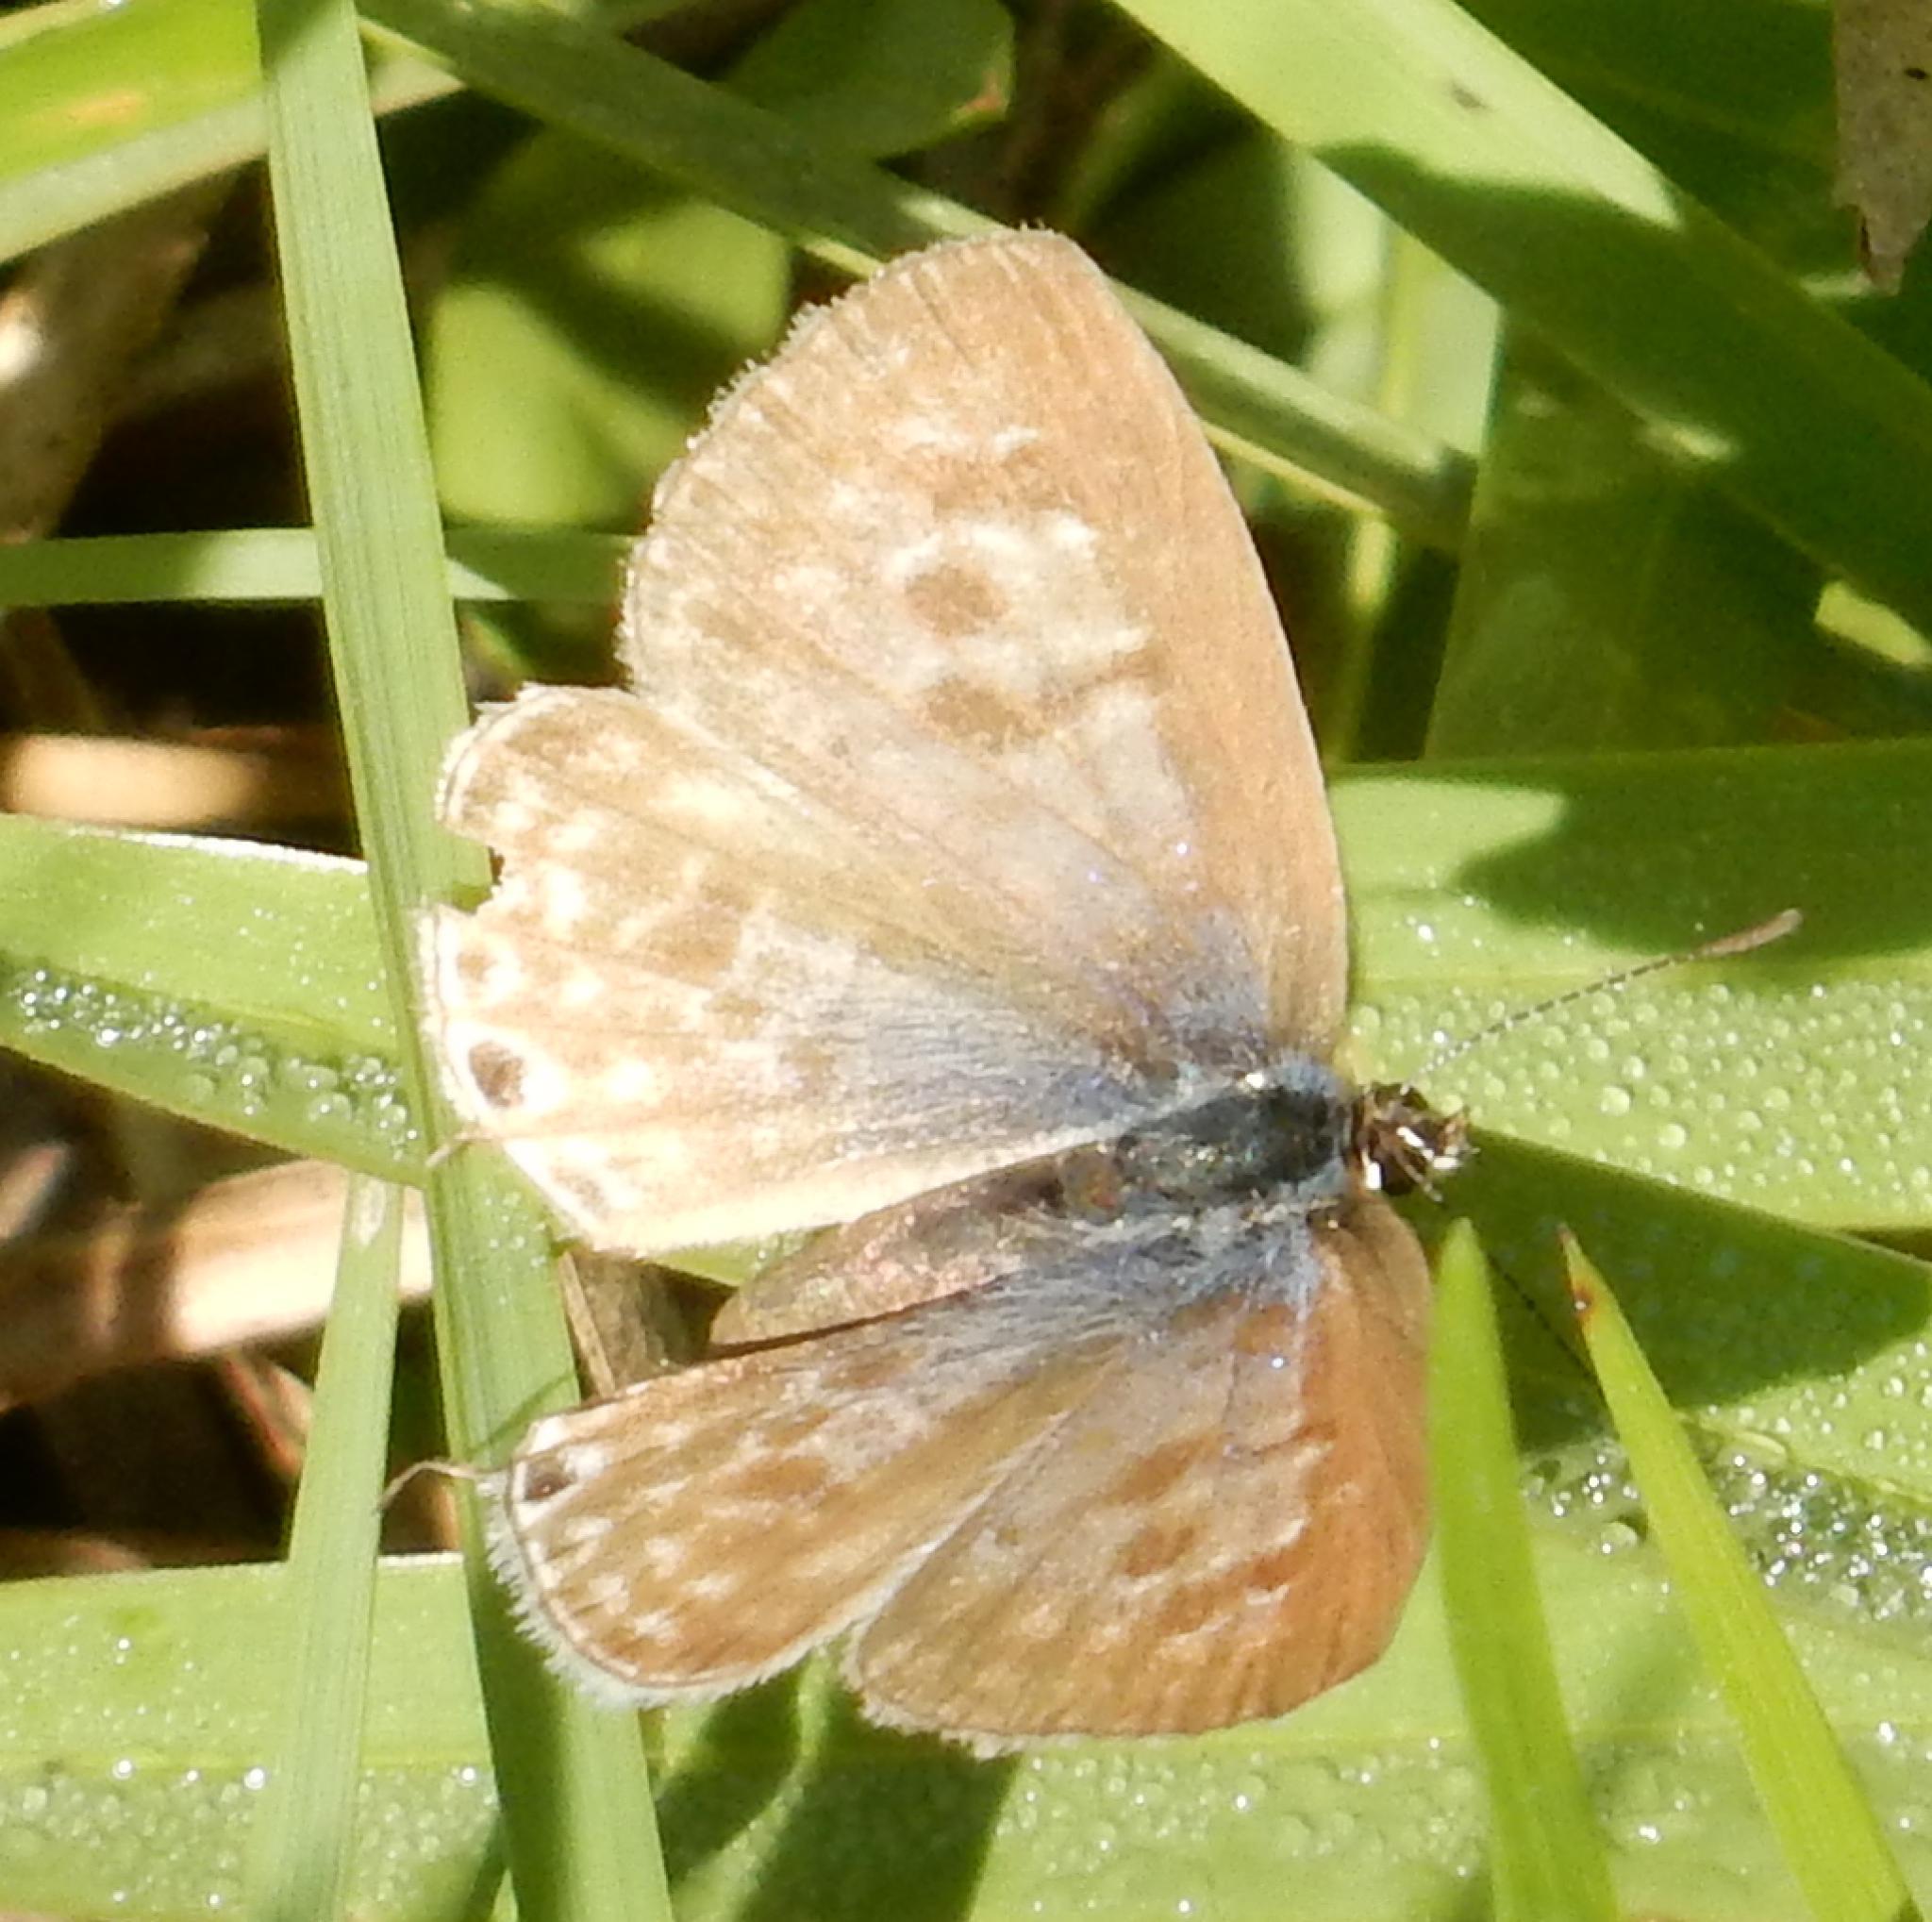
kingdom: Animalia
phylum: Arthropoda
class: Insecta
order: Lepidoptera
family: Lycaenidae
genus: Leptotes
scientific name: Leptotes
